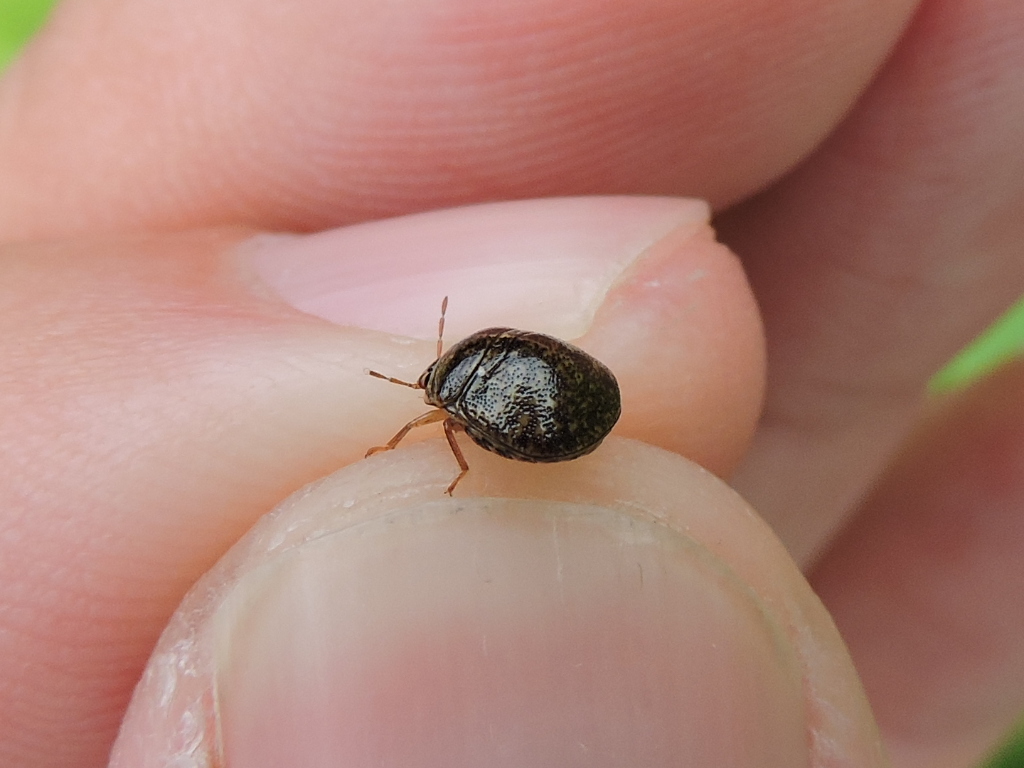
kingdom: Animalia
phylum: Arthropoda
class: Insecta
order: Hemiptera
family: Plataspidae
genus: Megacopta
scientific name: Megacopta cribraria
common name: Bean plataspid
